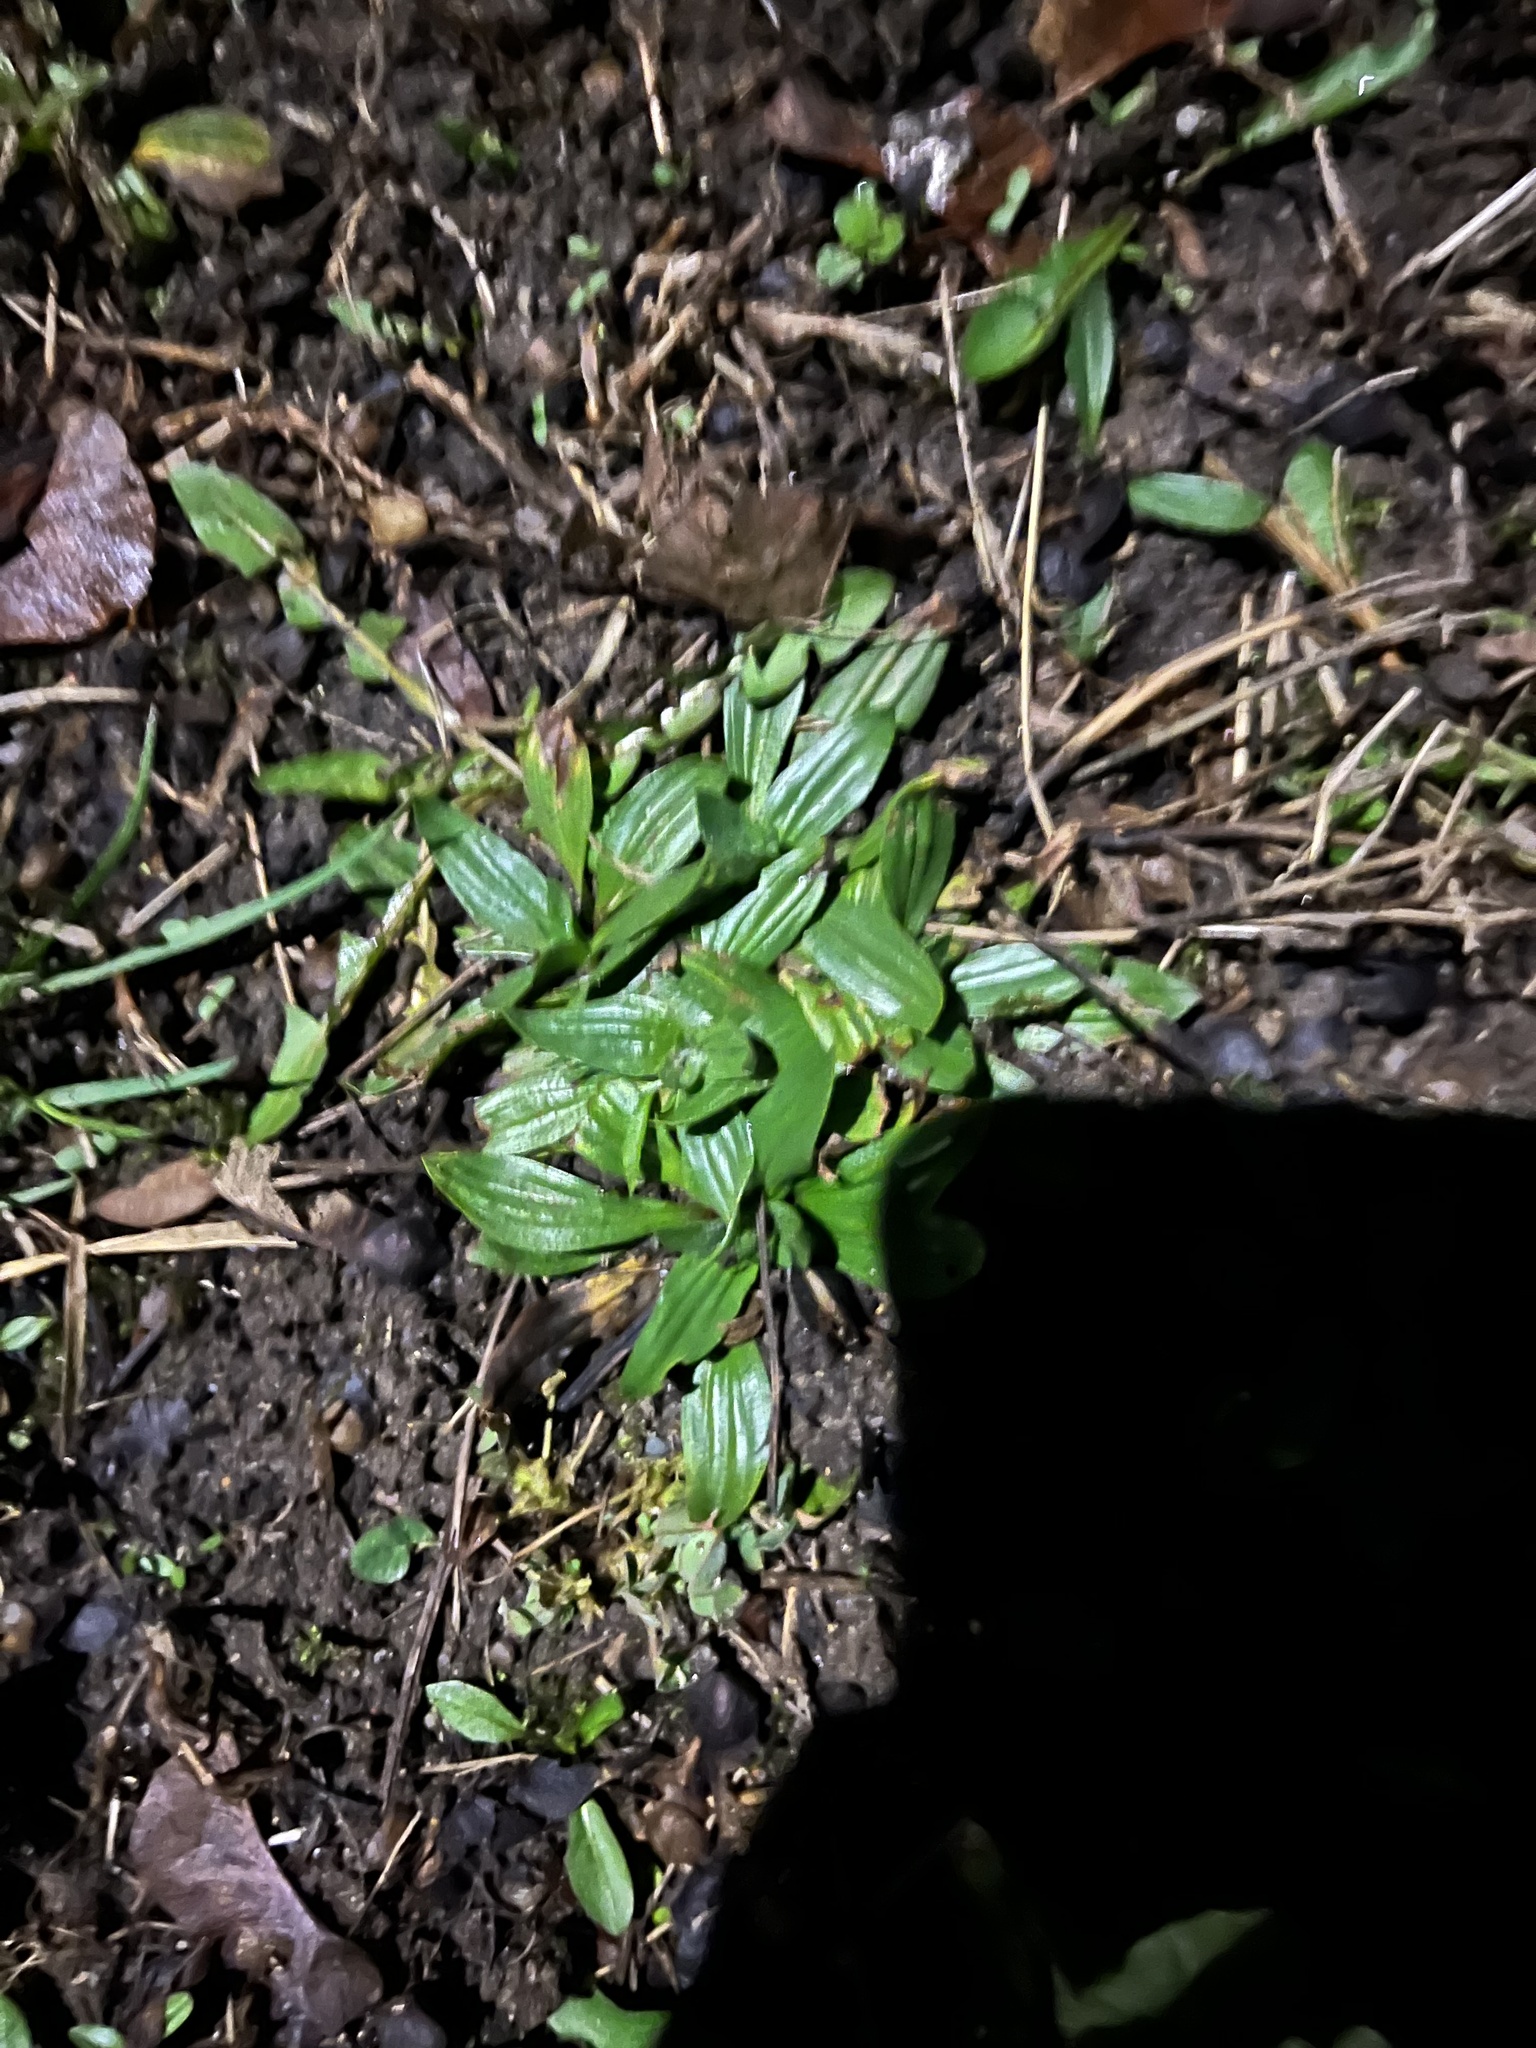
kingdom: Plantae
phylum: Tracheophyta
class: Magnoliopsida
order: Lamiales
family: Plantaginaceae
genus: Plantago
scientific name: Plantago lanceolata
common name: Ribwort plantain
